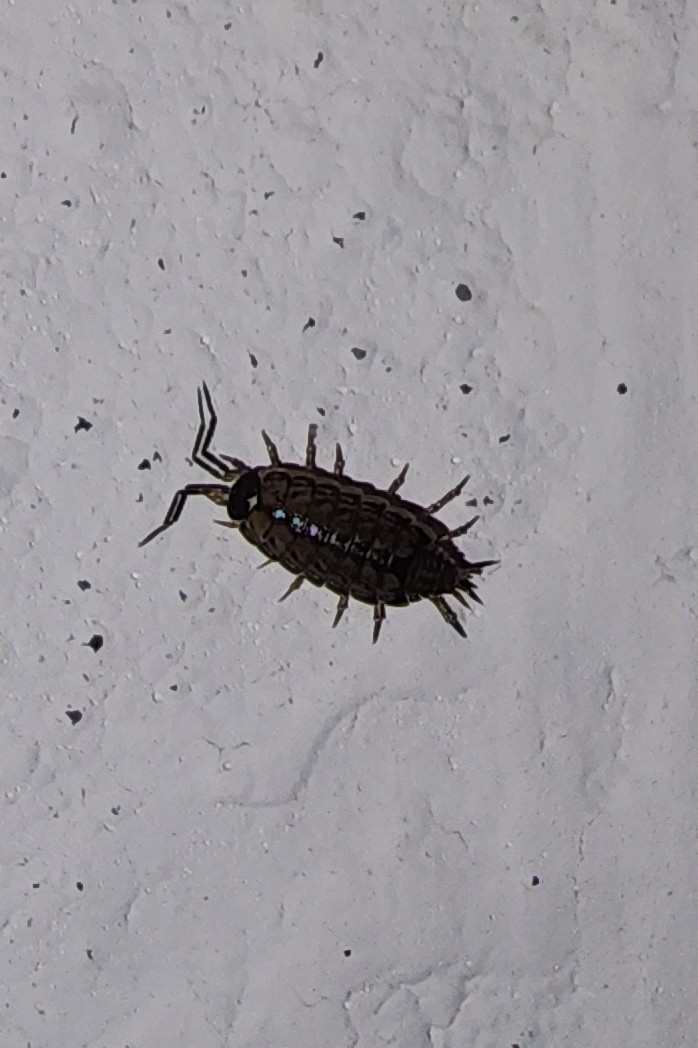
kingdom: Animalia
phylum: Arthropoda
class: Malacostraca
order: Isopoda
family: Philosciidae
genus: Philoscia
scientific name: Philoscia muscorum
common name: Common striped woodlouse
